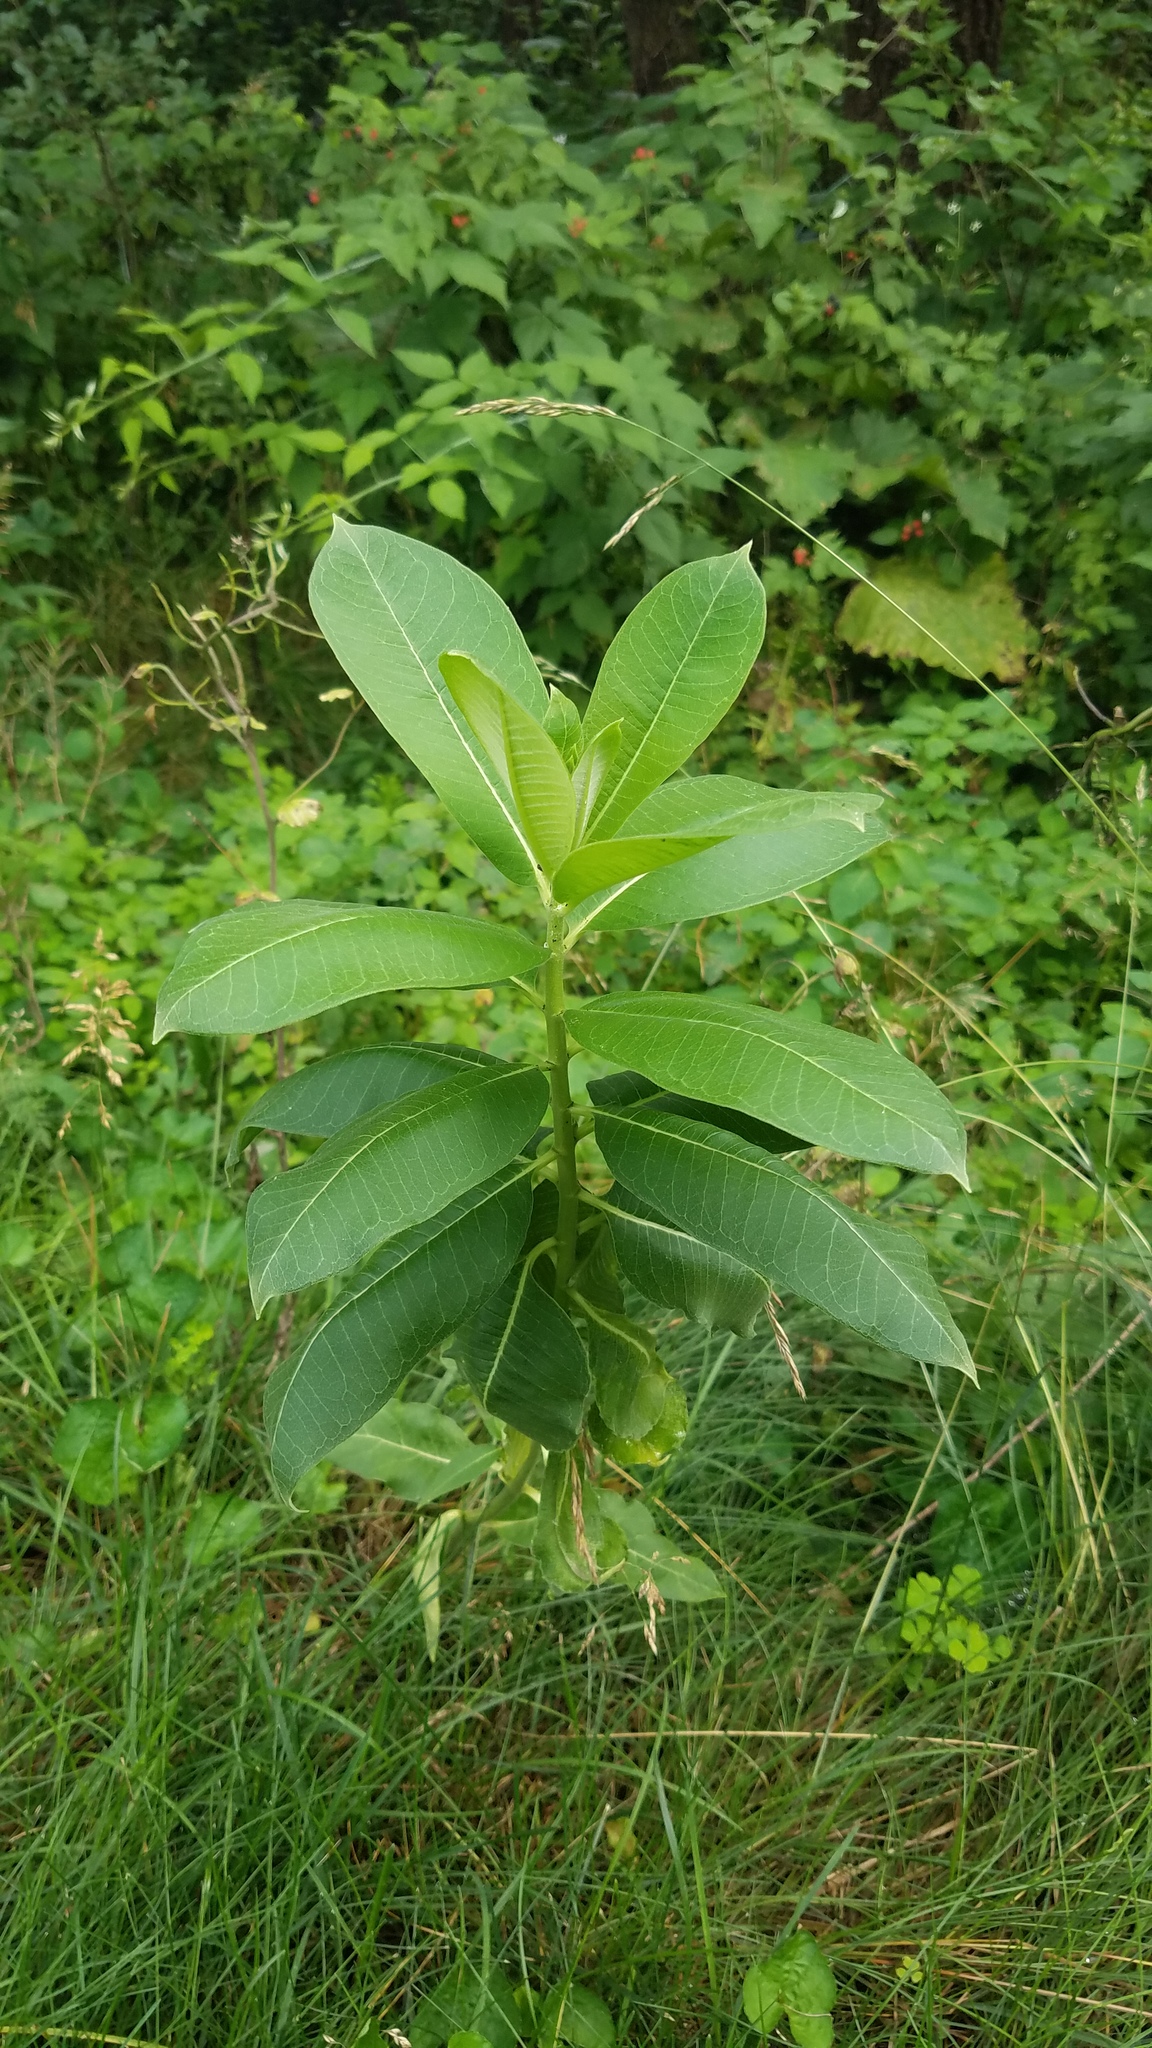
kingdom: Plantae
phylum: Tracheophyta
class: Magnoliopsida
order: Gentianales
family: Apocynaceae
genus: Asclepias
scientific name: Asclepias syriaca
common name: Common milkweed
